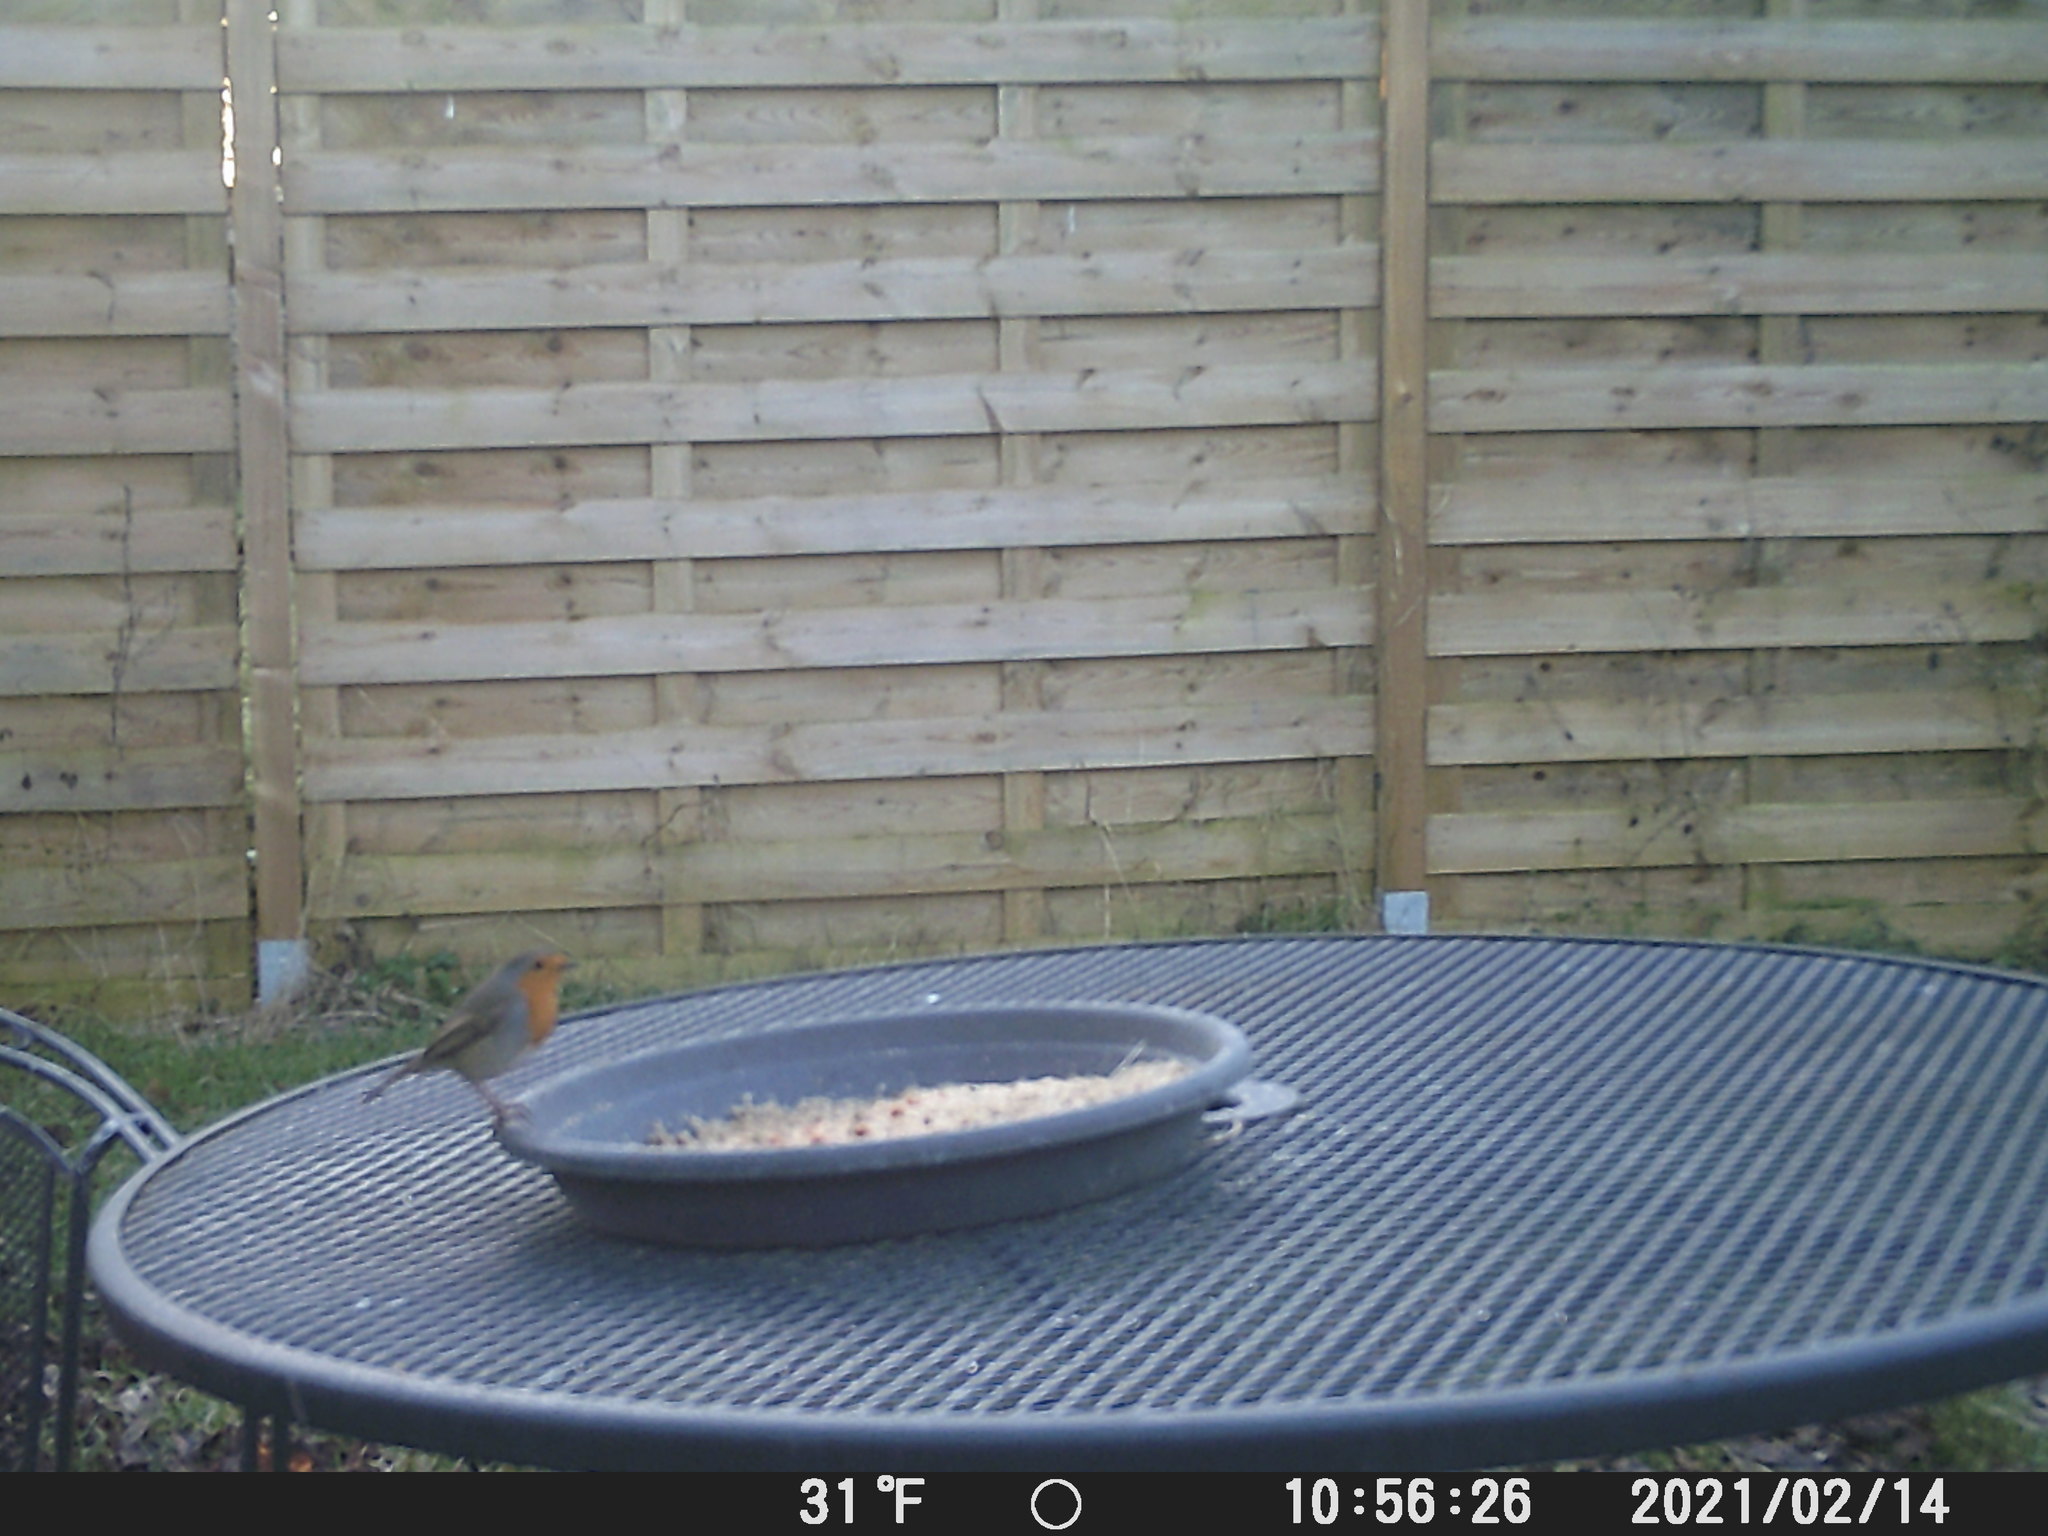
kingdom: Animalia
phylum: Chordata
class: Aves
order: Passeriformes
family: Muscicapidae
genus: Erithacus
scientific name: Erithacus rubecula
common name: European robin
